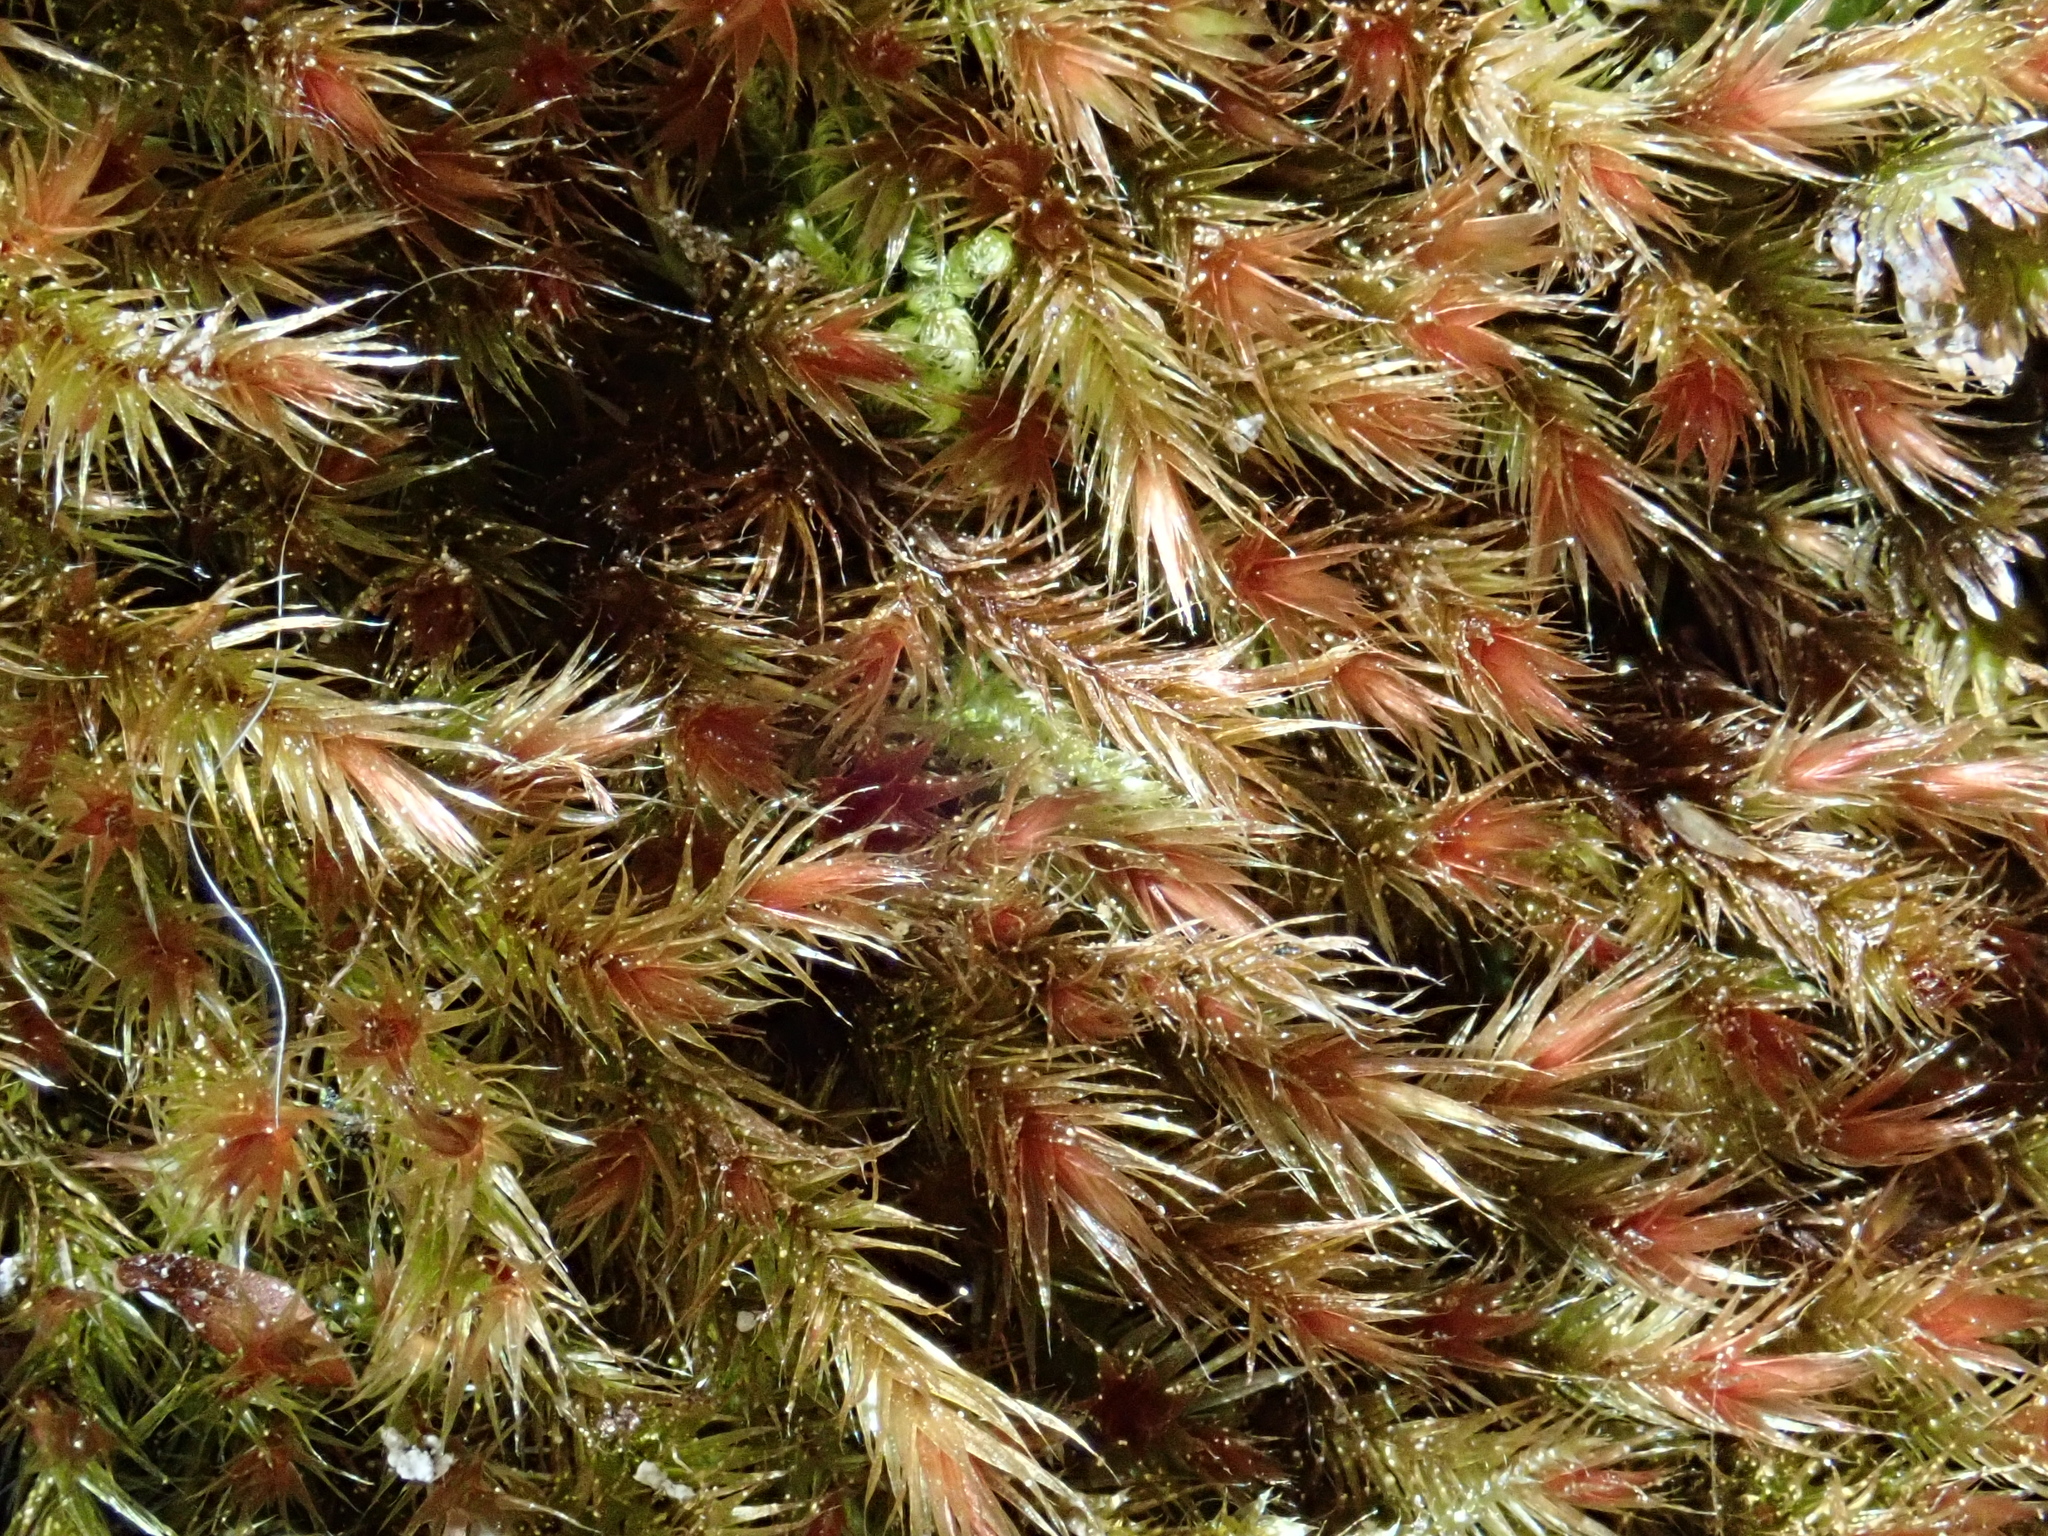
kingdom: Plantae
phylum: Bryophyta
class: Bryopsida
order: Hypnales
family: Plagiotheciaceae
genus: Orthothecium
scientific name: Orthothecium rufescens
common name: Red leskea
